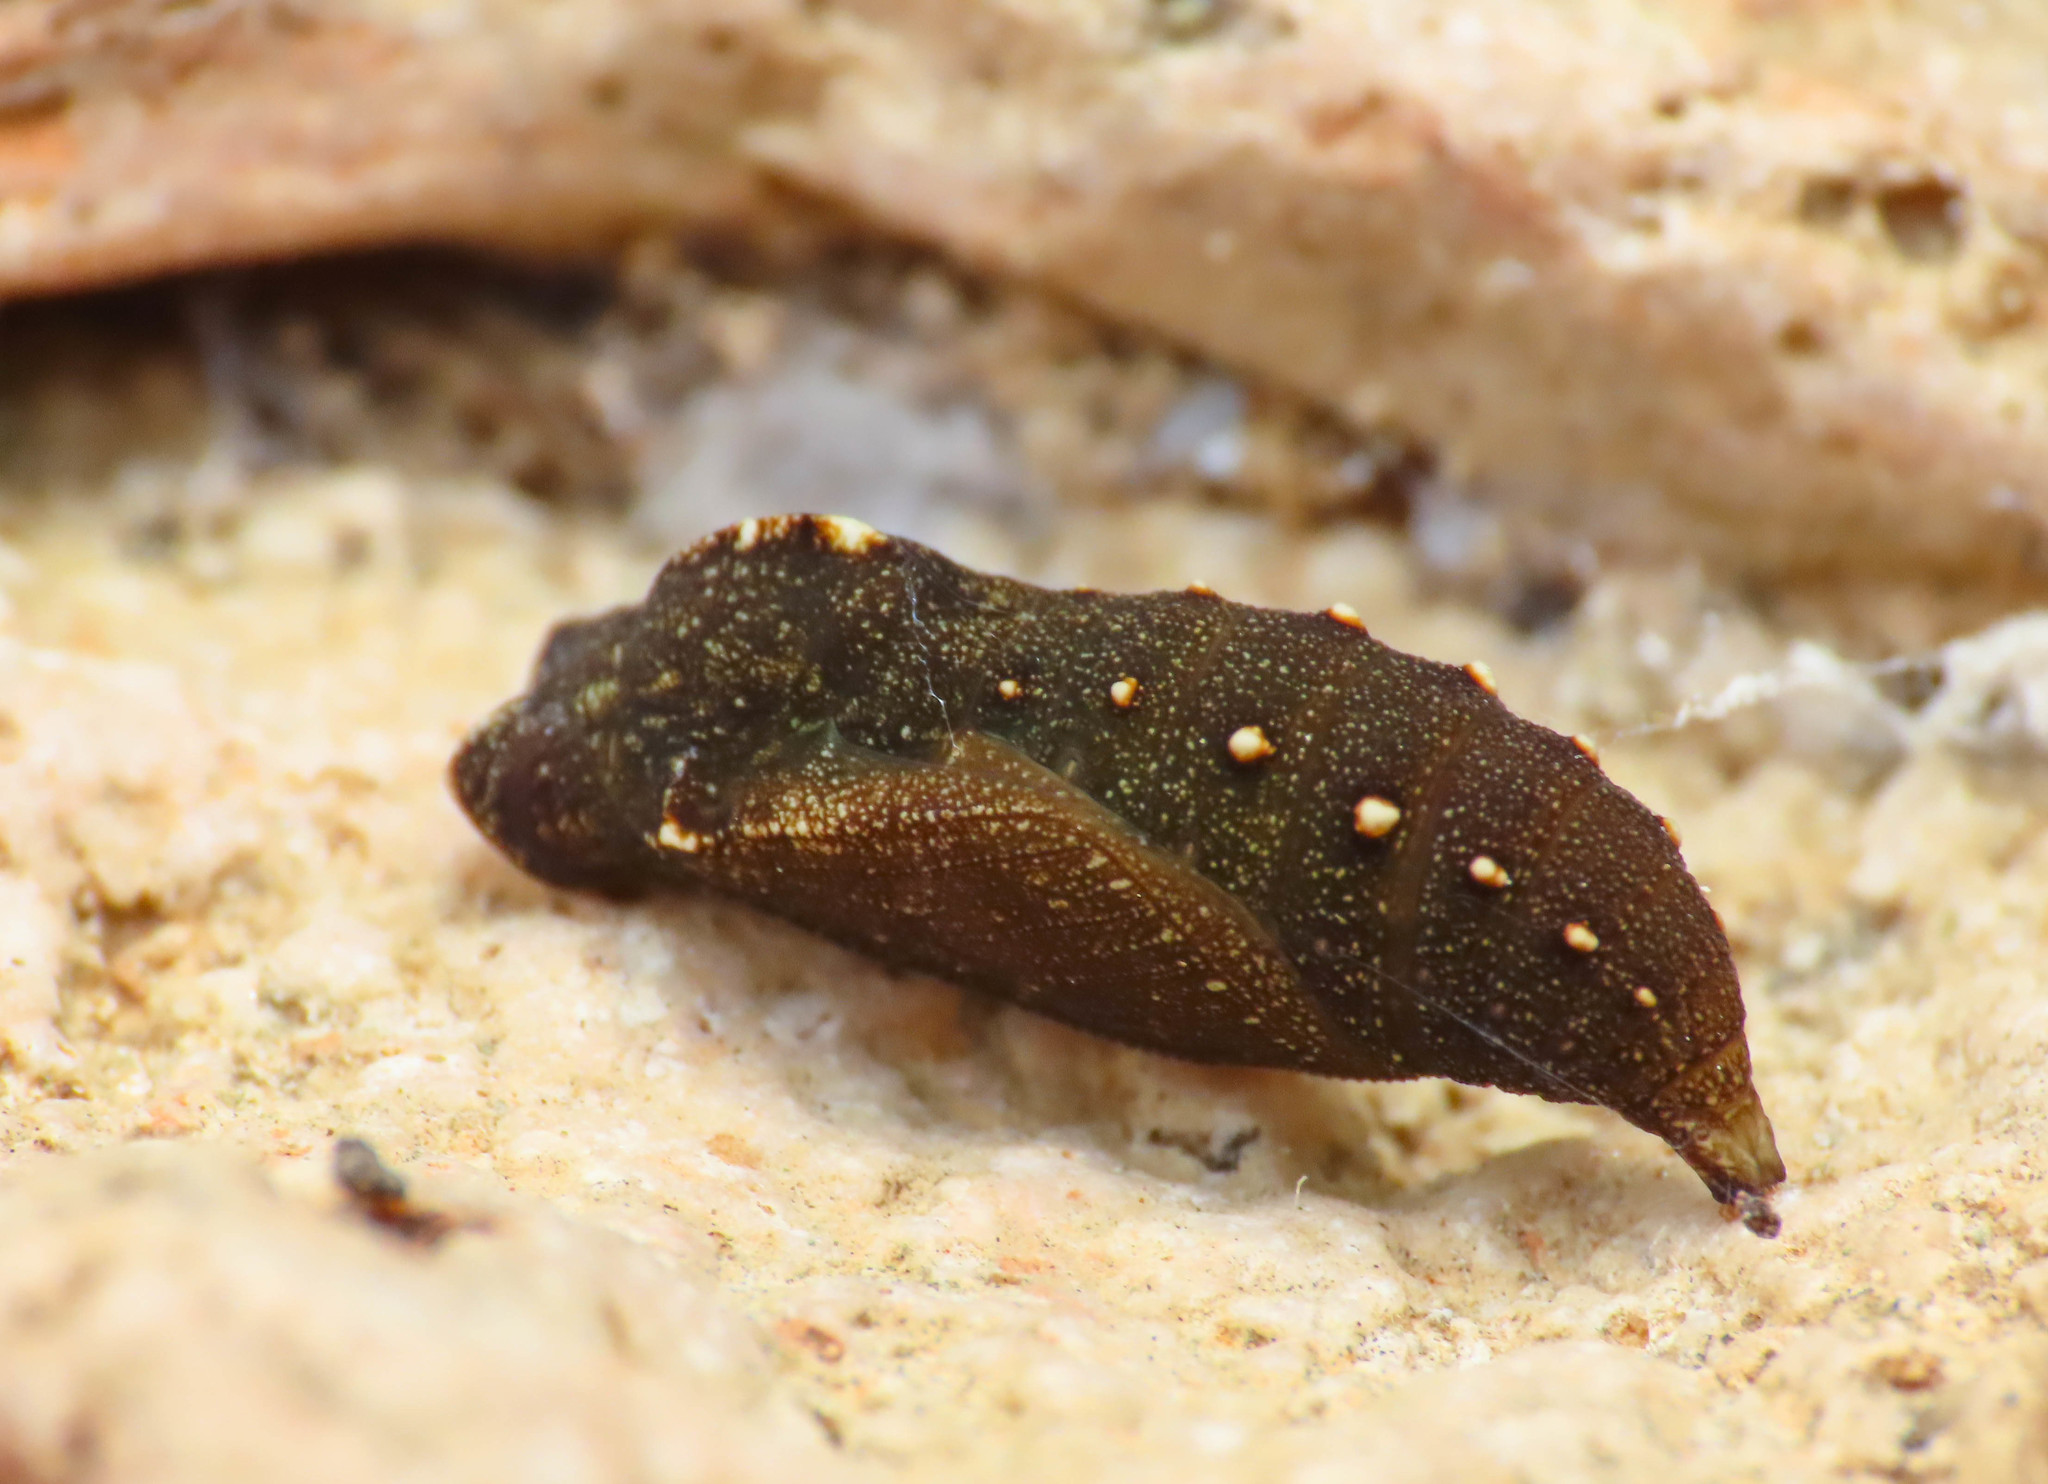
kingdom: Animalia
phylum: Arthropoda
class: Insecta
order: Lepidoptera
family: Nymphalidae
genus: Pararge
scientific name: Pararge Lasiommata megera
